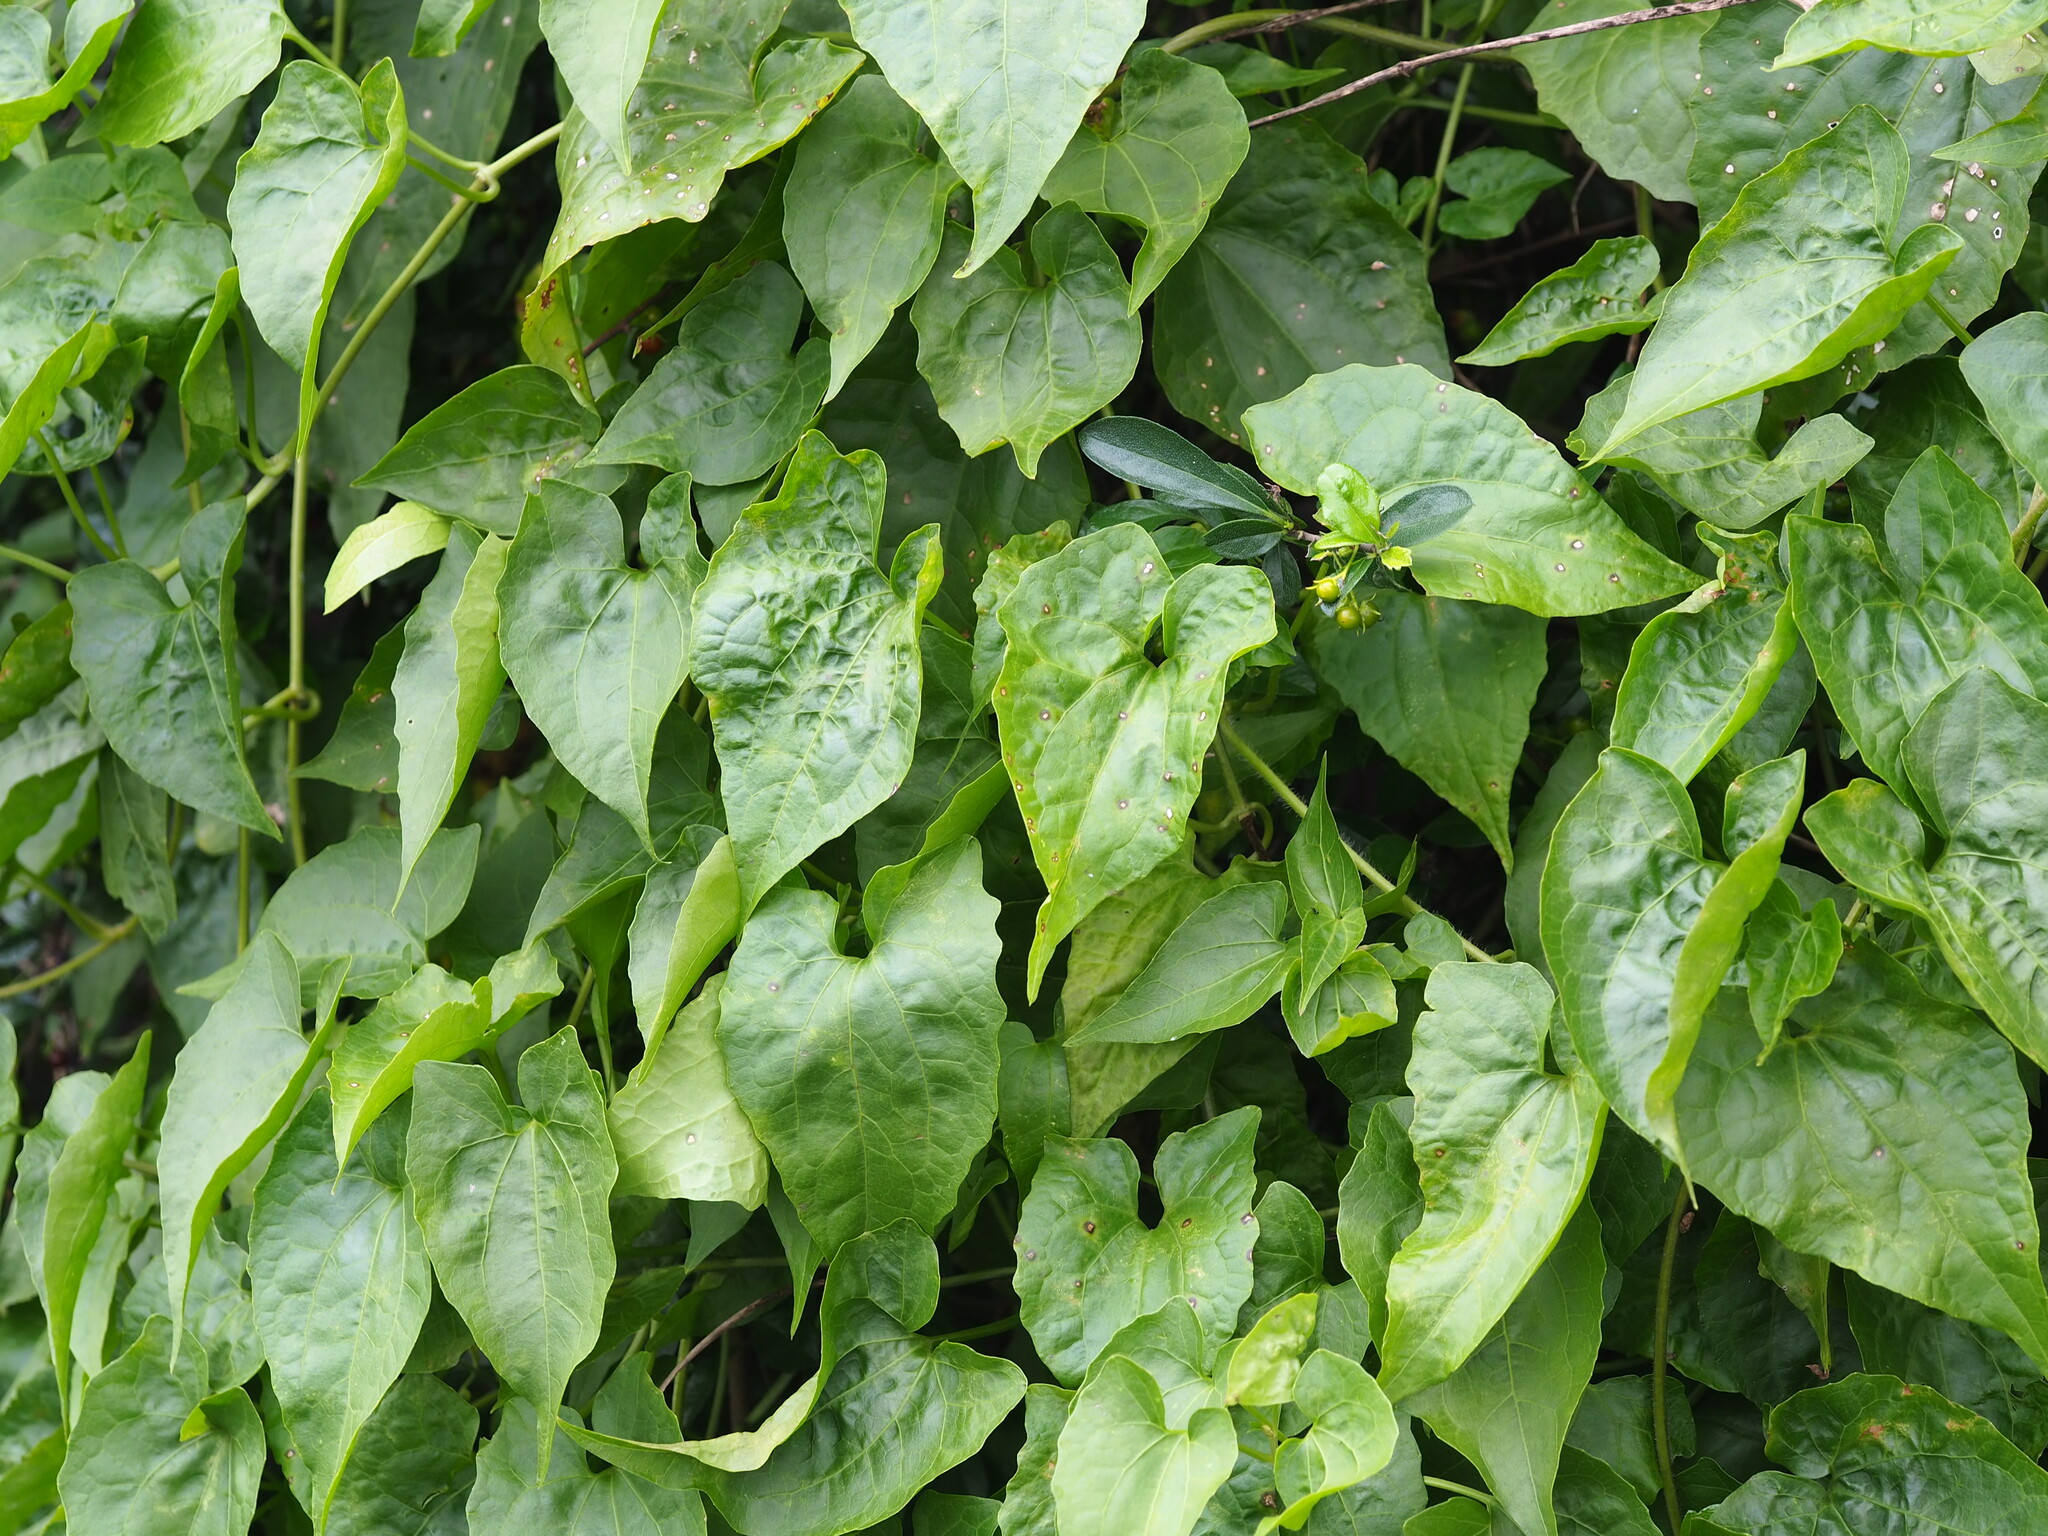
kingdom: Plantae
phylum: Tracheophyta
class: Magnoliopsida
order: Asterales
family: Asteraceae
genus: Mikania
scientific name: Mikania micrantha
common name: Mile-a-minute
